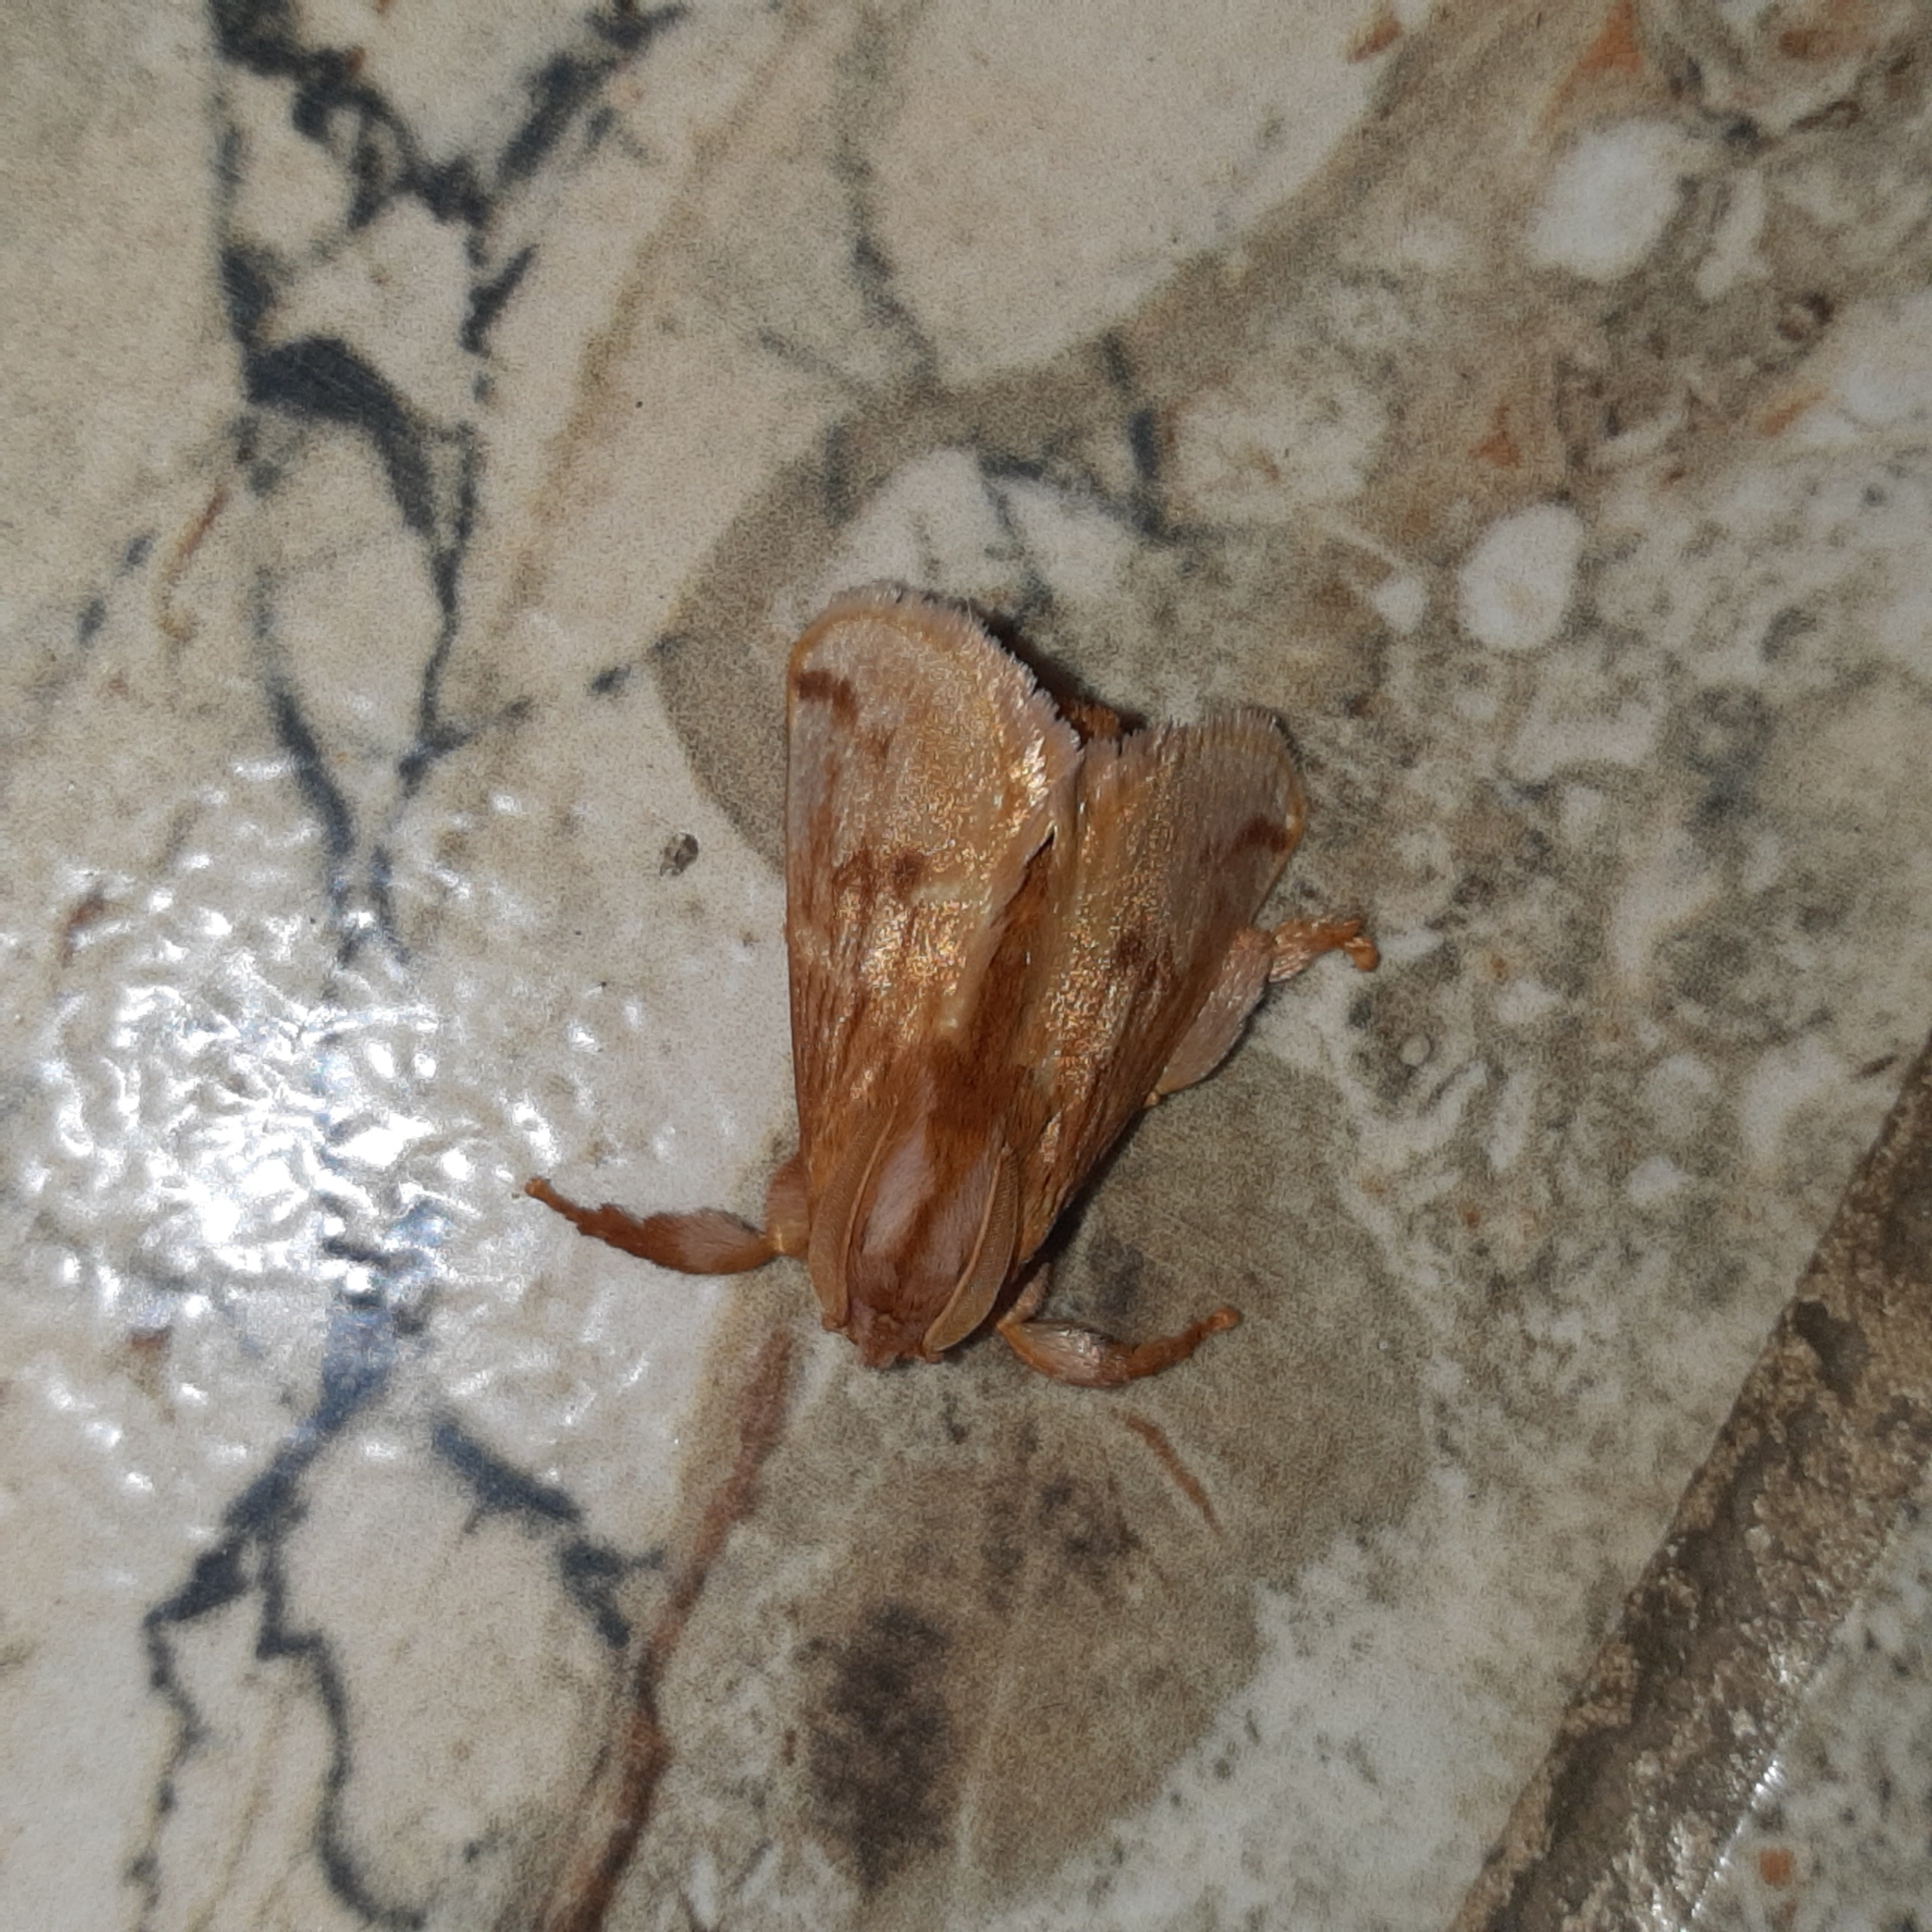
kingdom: Animalia
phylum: Arthropoda
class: Insecta
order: Lepidoptera
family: Limacodidae
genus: Perola
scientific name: Perola sericea
